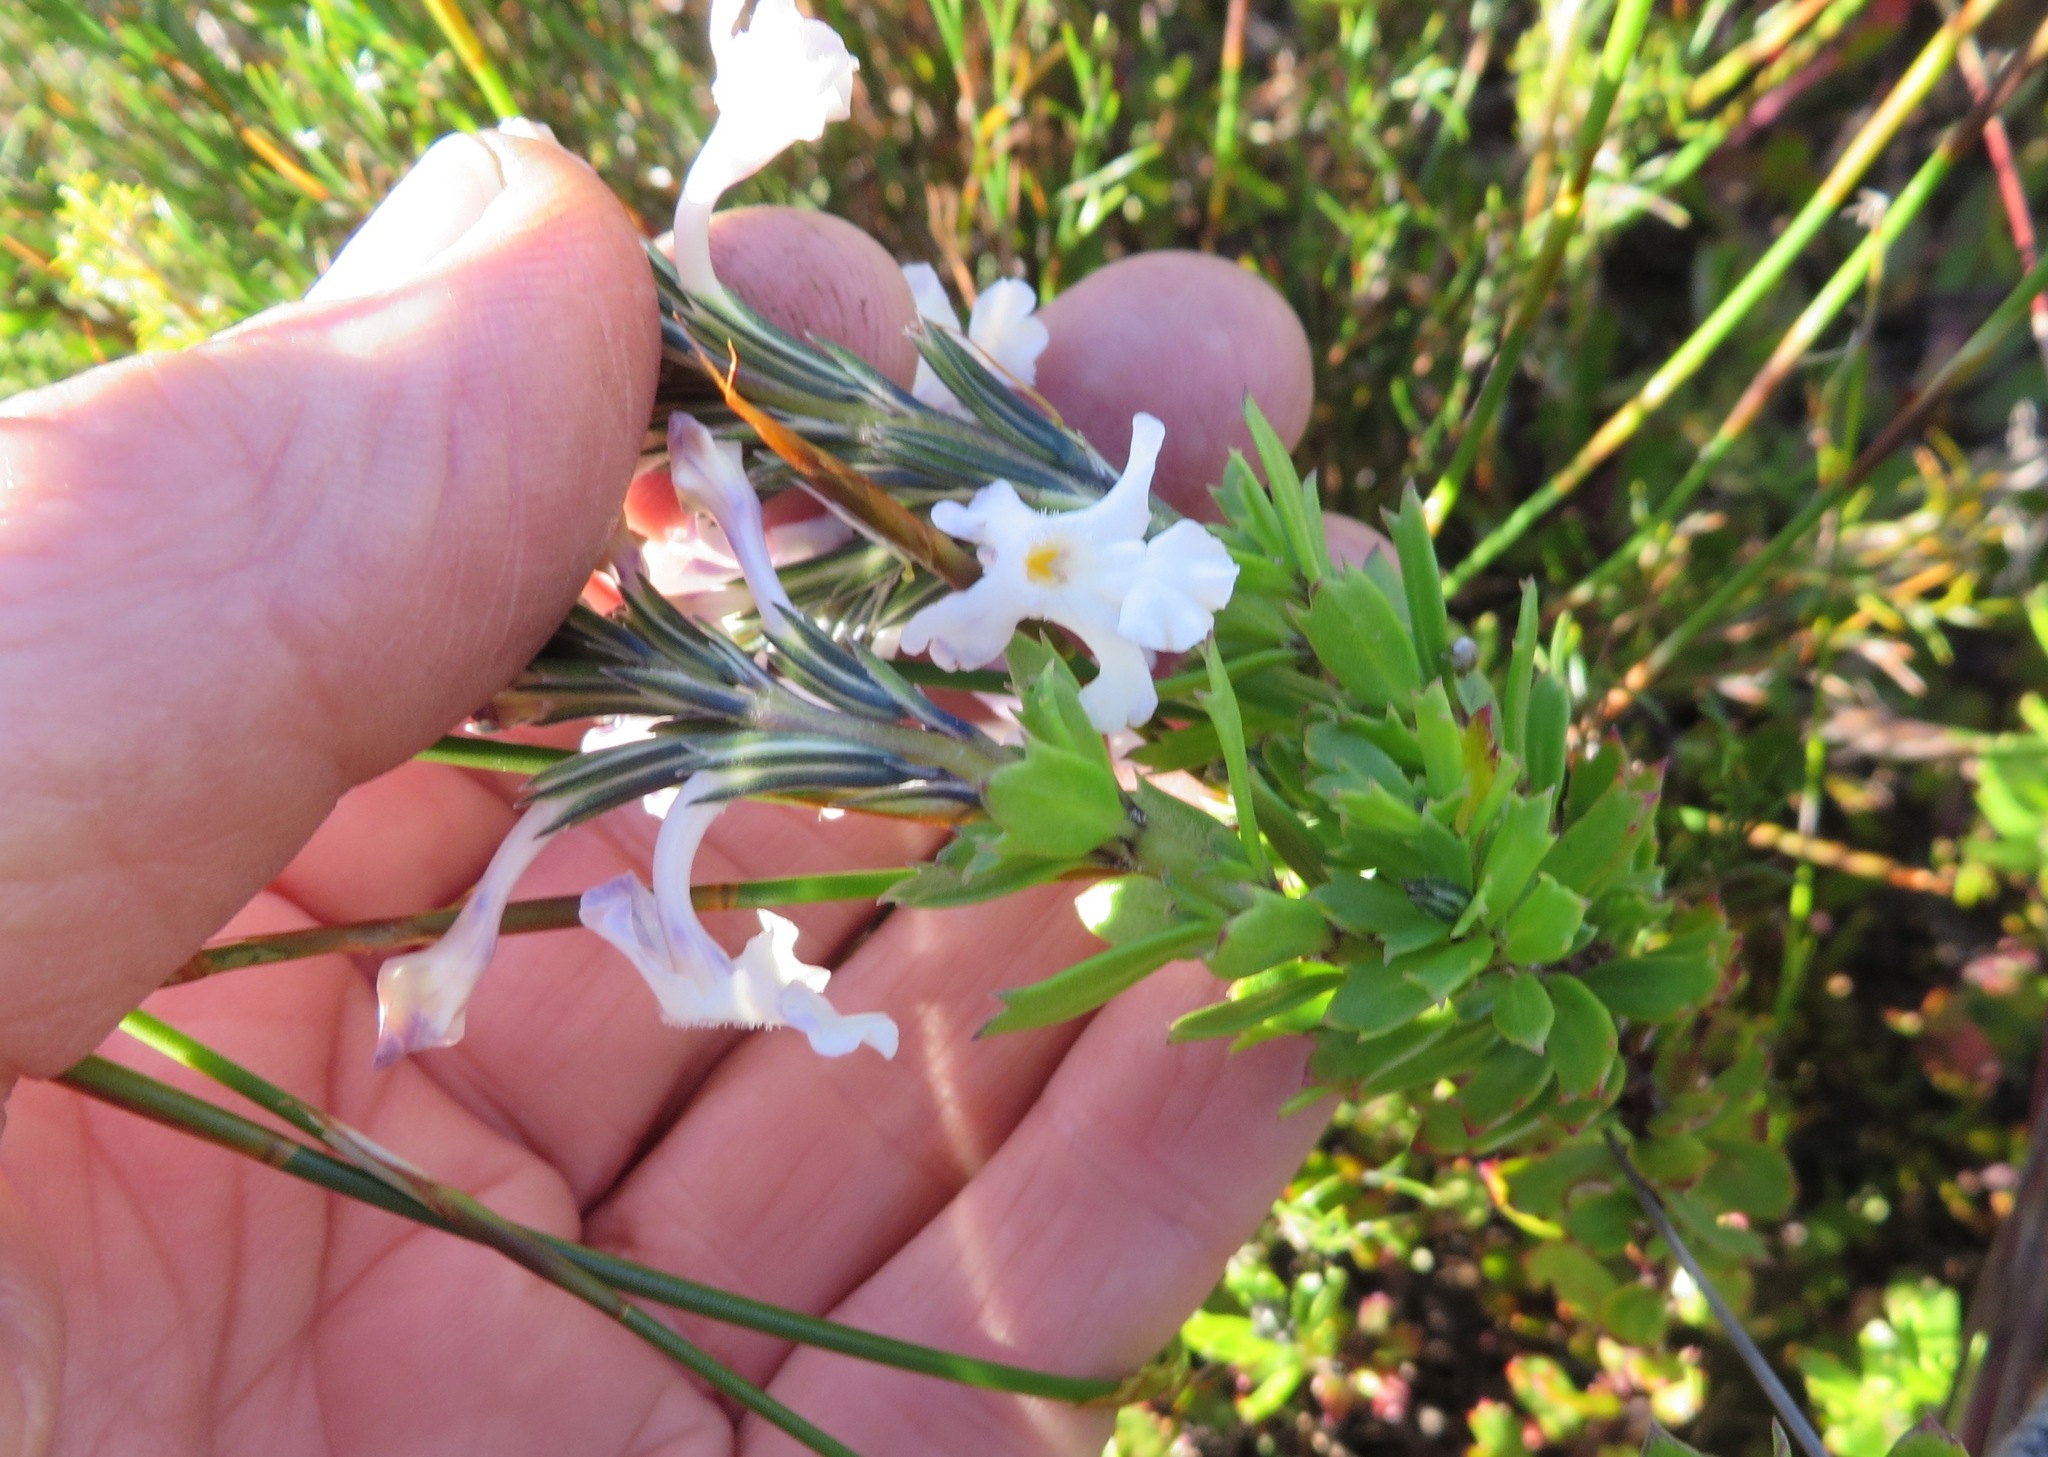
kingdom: Plantae
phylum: Tracheophyta
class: Magnoliopsida
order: Lamiales
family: Verbenaceae
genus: Chascanum
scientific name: Chascanum cernuum
